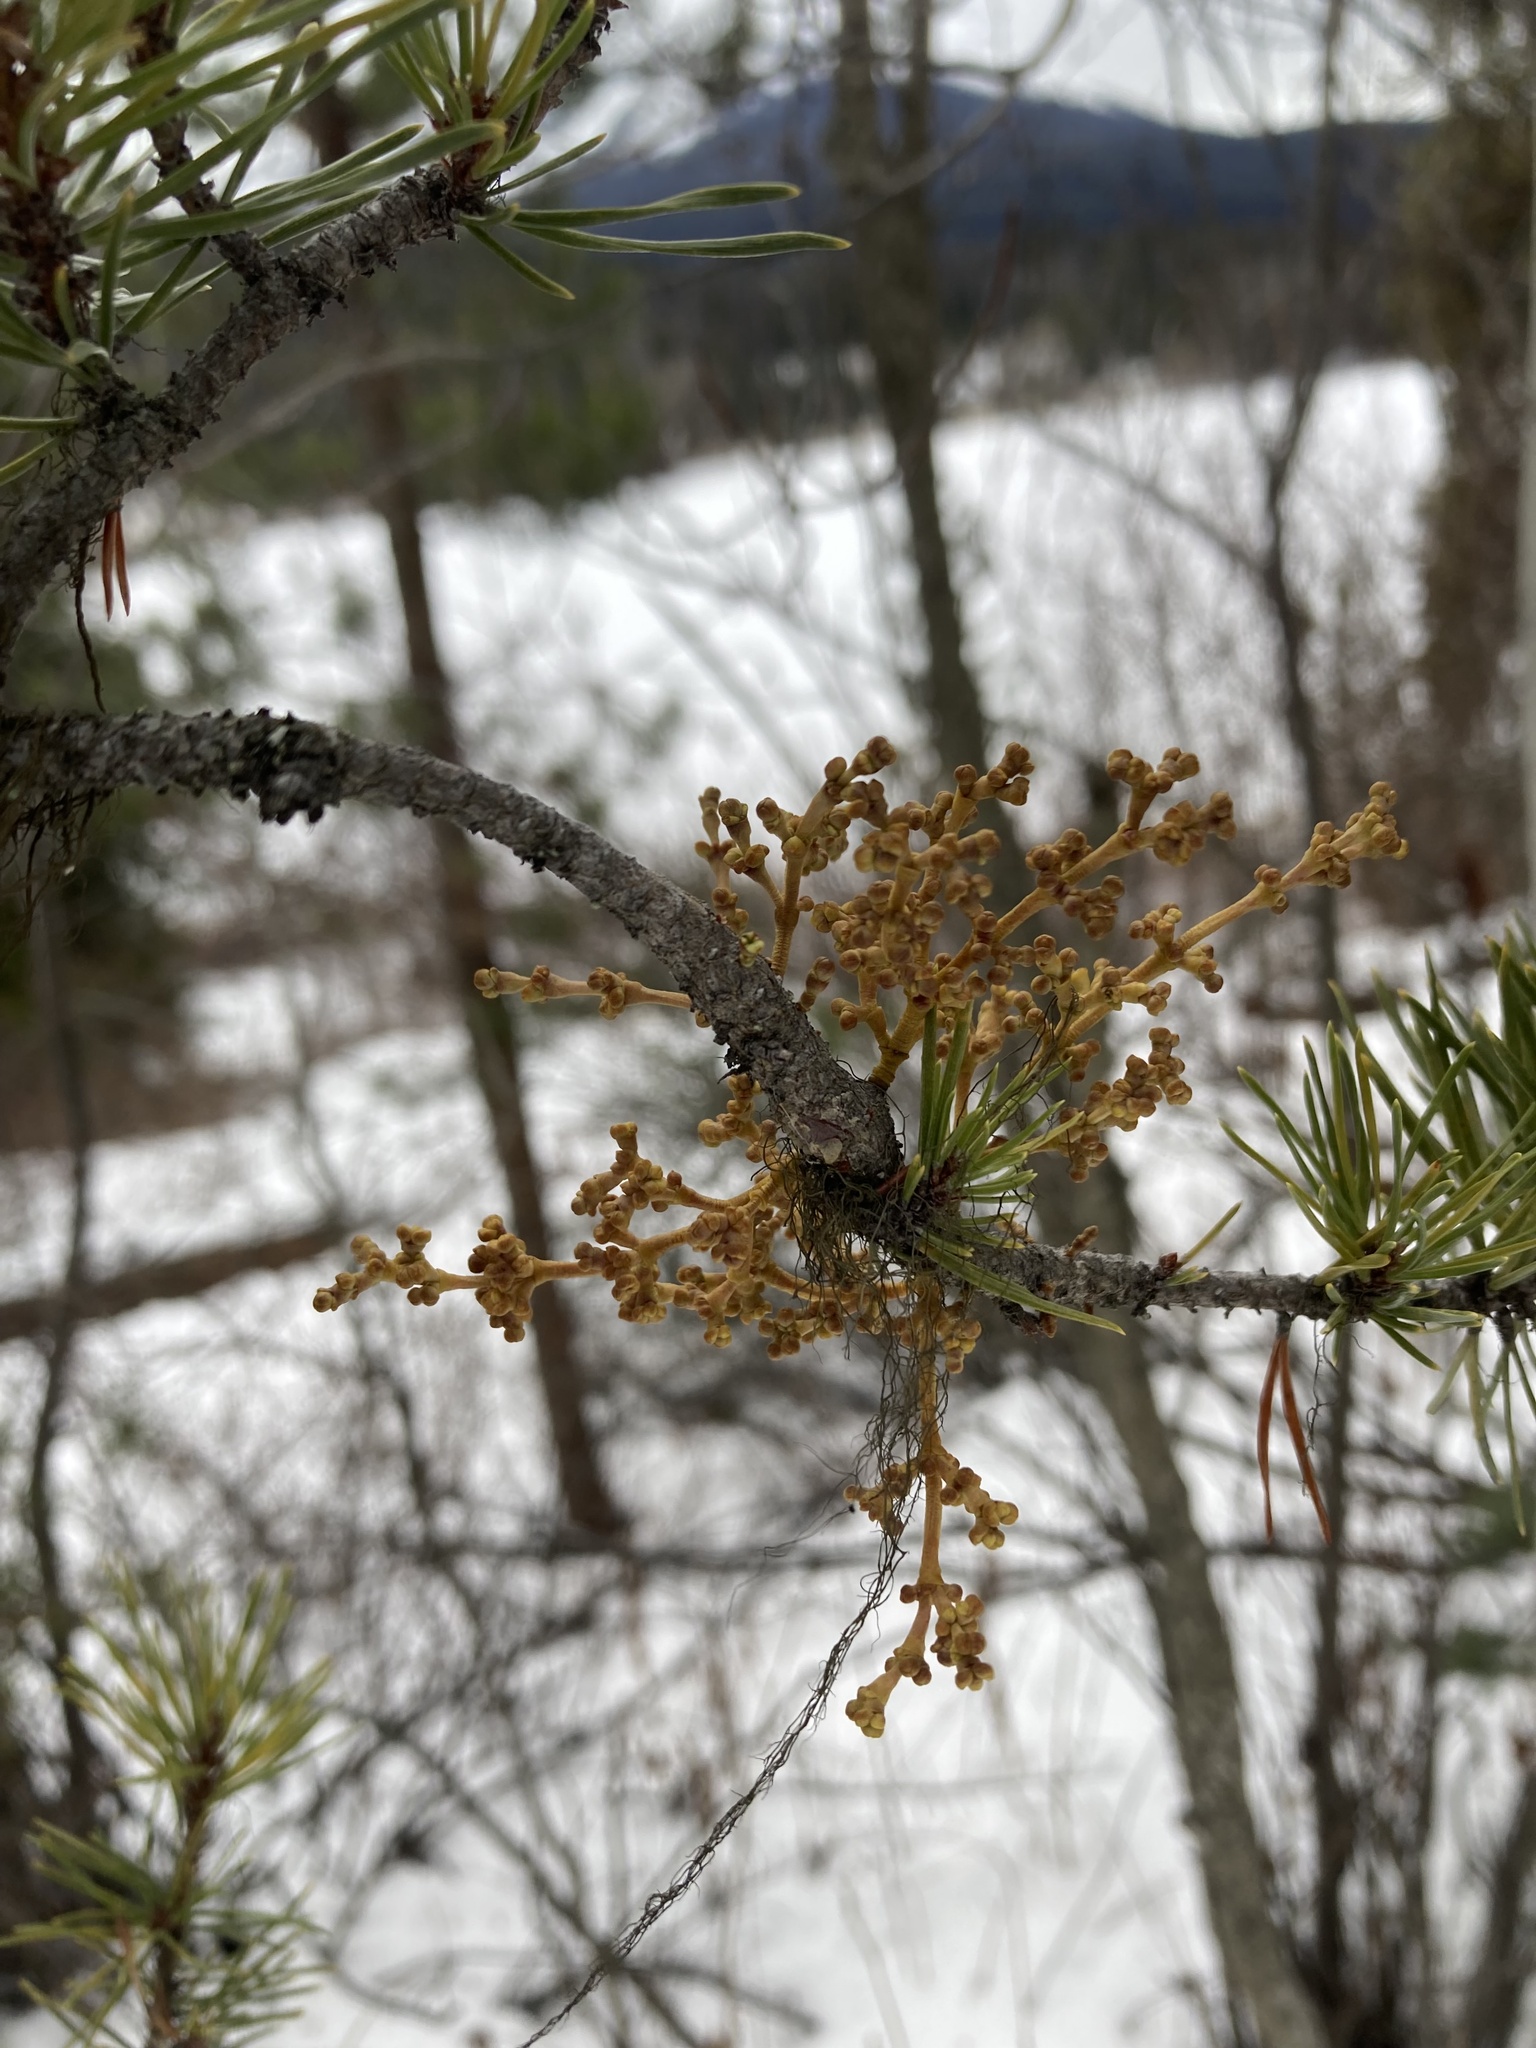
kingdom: Plantae
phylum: Tracheophyta
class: Magnoliopsida
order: Santalales
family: Viscaceae
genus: Arceuthobium
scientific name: Arceuthobium americanum
